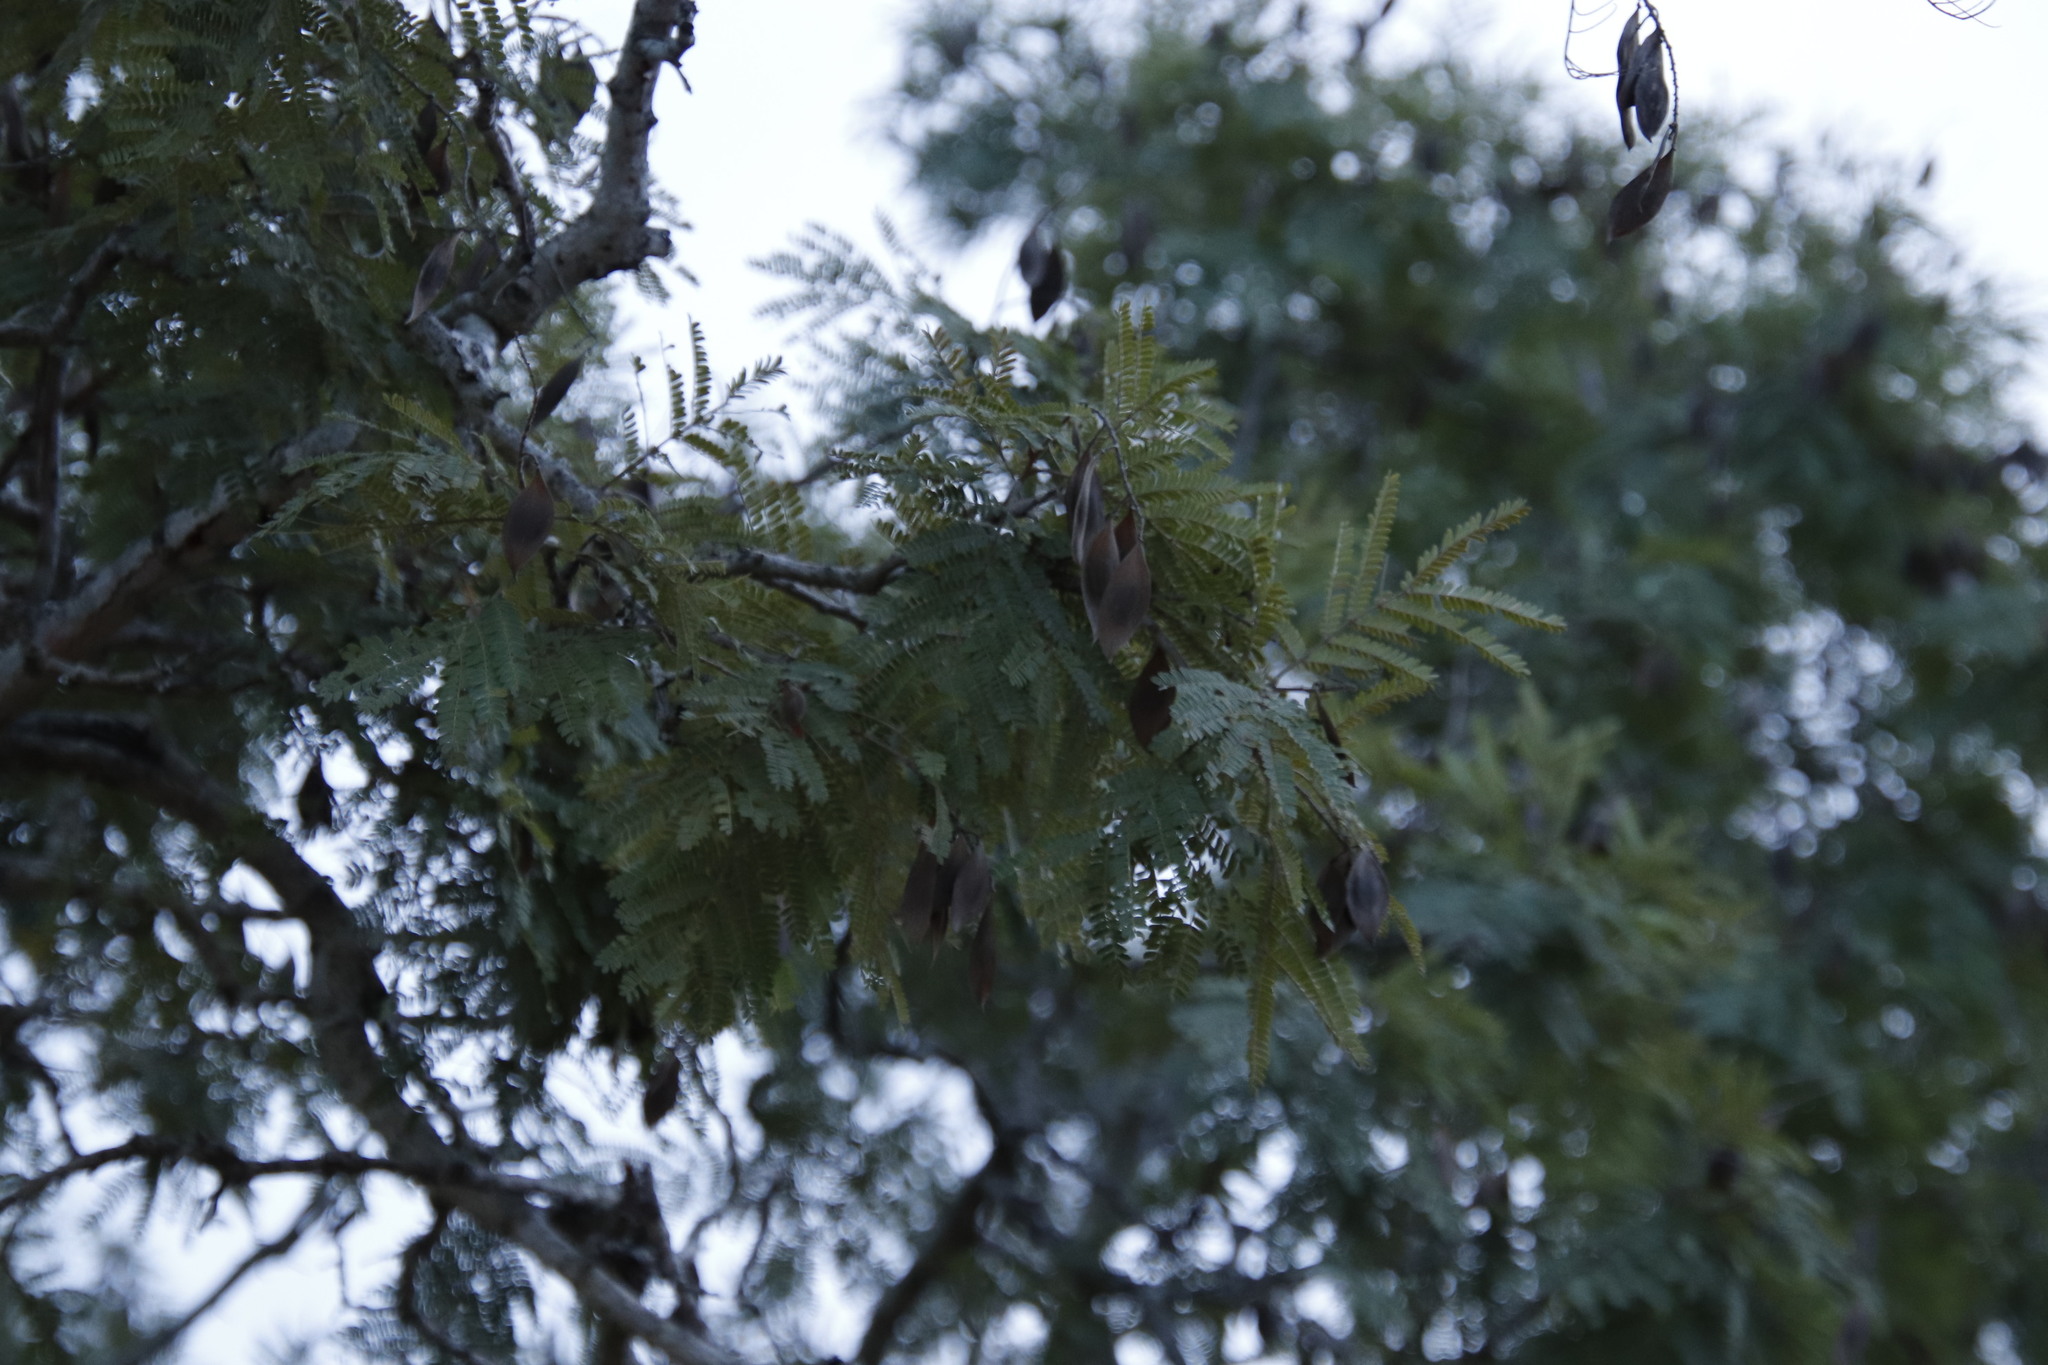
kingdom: Plantae
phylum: Tracheophyta
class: Magnoliopsida
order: Fabales
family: Fabaceae
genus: Peltophorum
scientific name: Peltophorum africanum
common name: African black wattle
